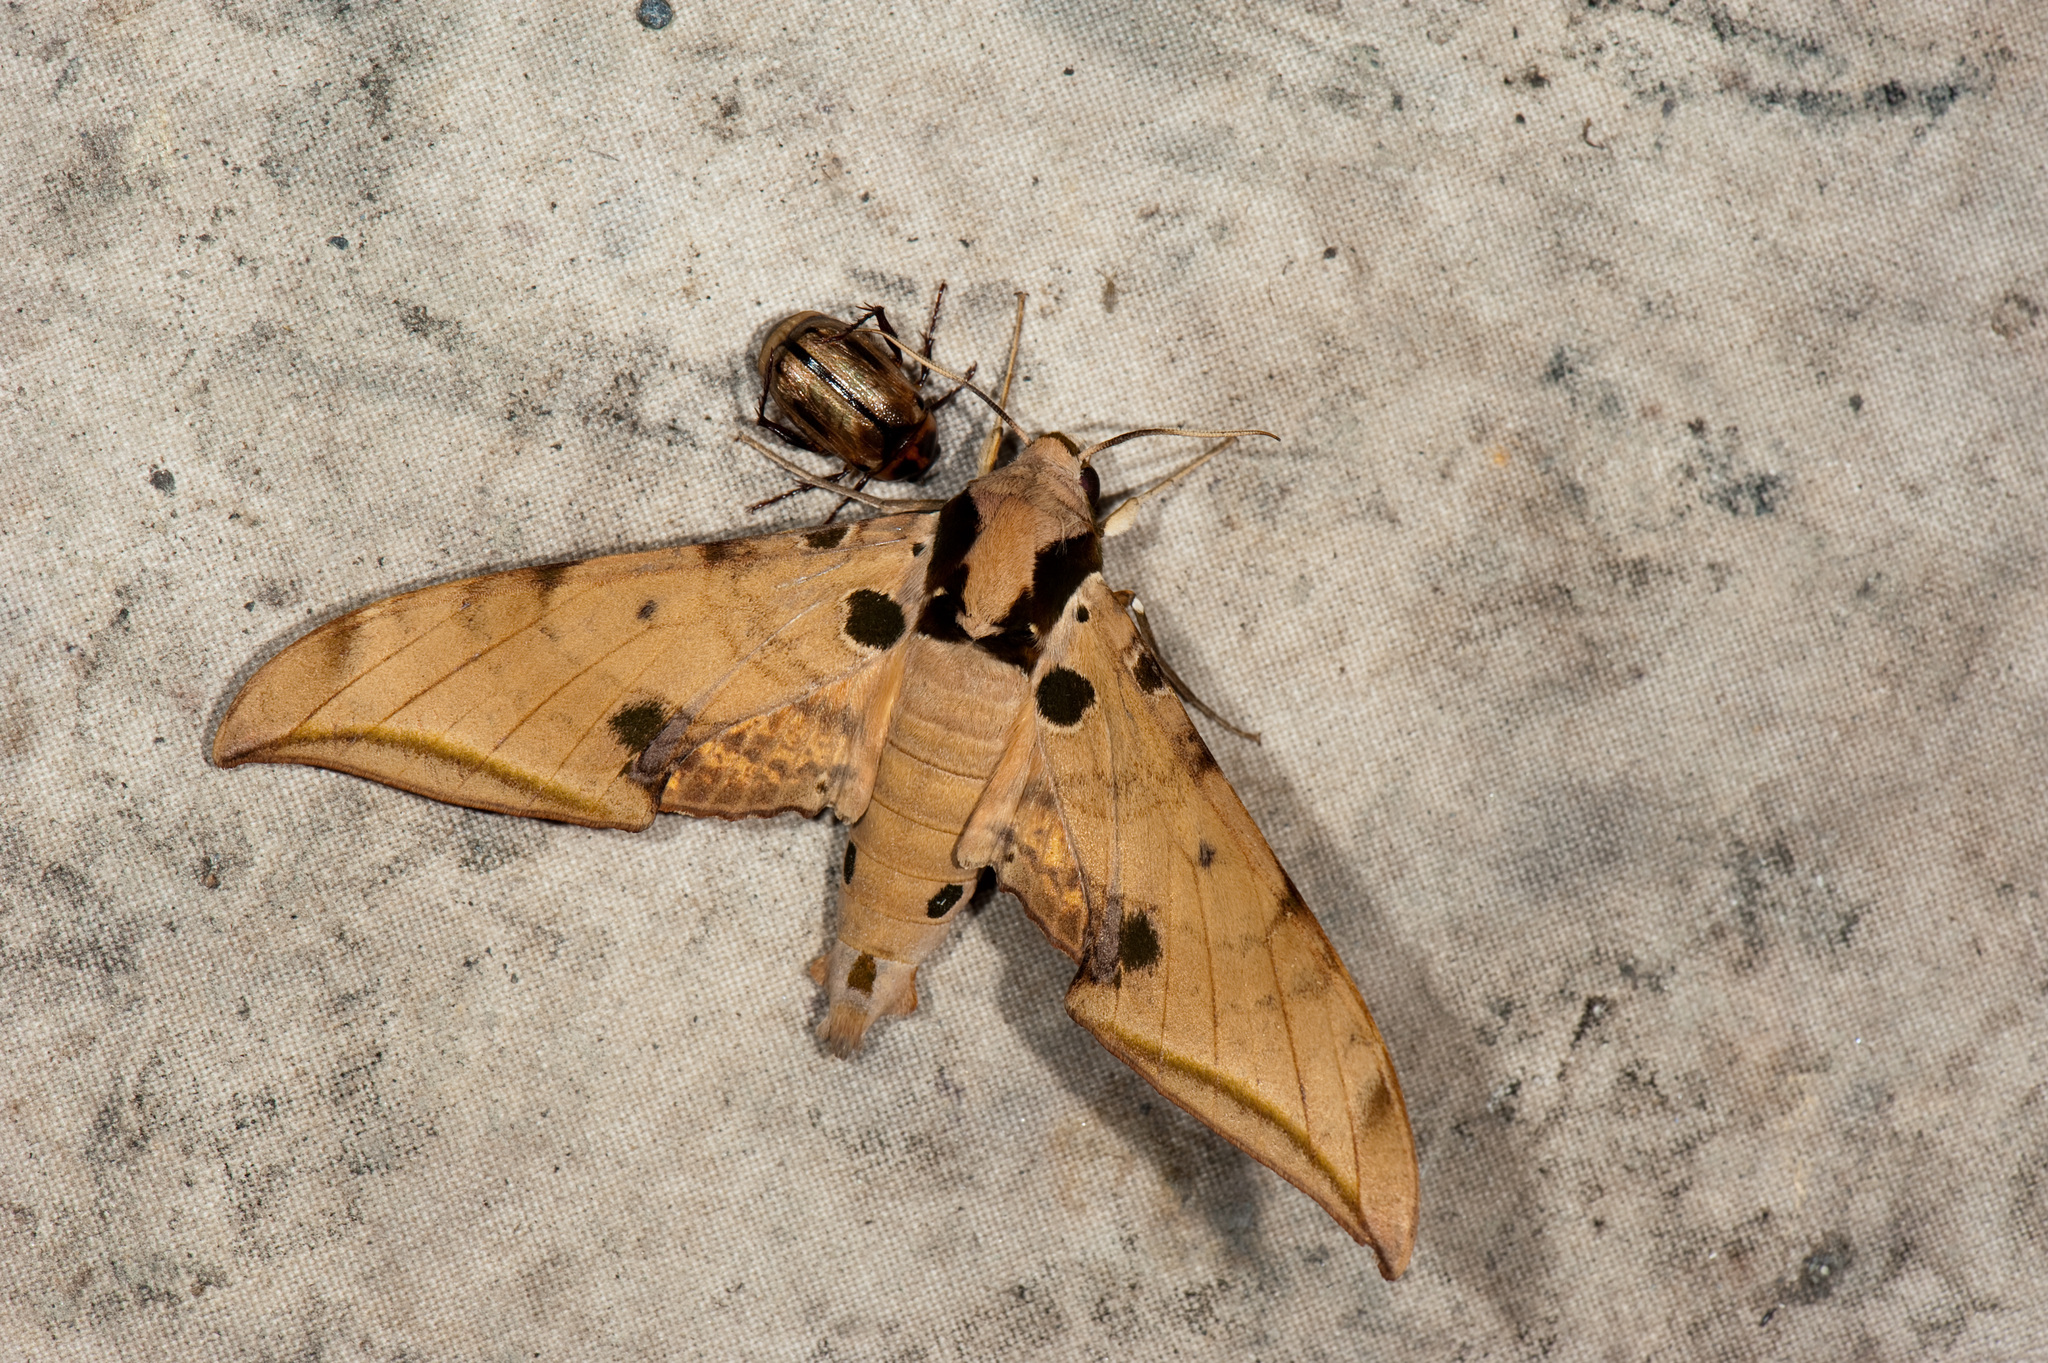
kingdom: Animalia
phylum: Arthropoda
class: Insecta
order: Lepidoptera
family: Sphingidae
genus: Ambulyx
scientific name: Ambulyx ochracea
